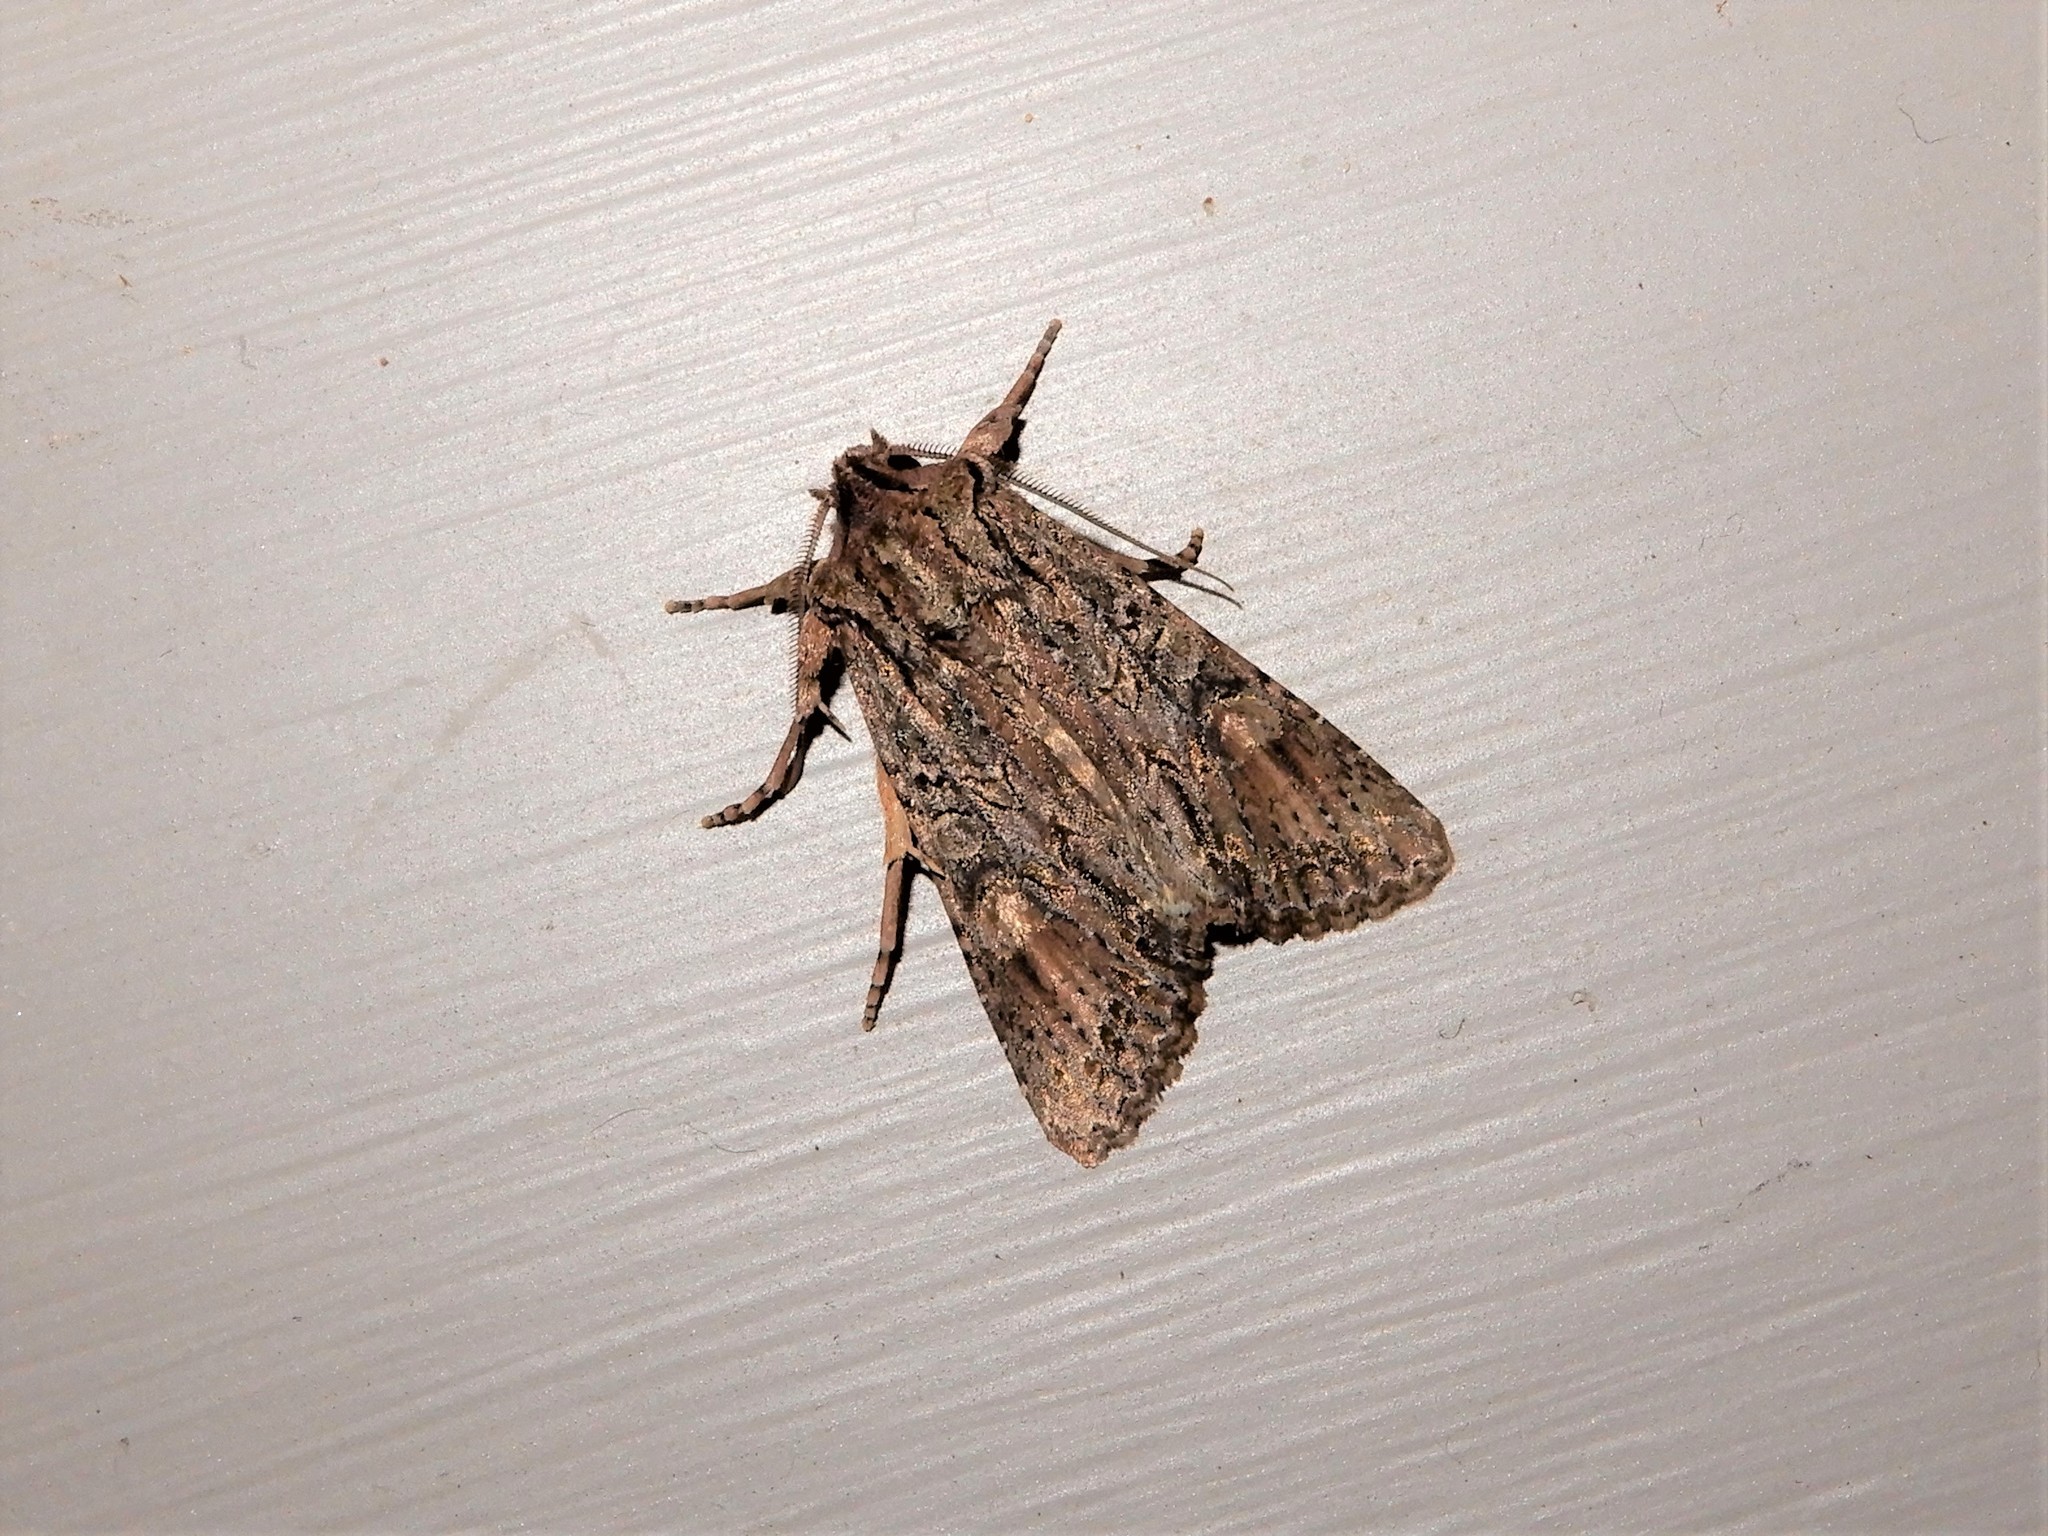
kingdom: Animalia
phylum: Arthropoda
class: Insecta
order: Lepidoptera
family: Noctuidae
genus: Ichneutica
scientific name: Ichneutica mutans
